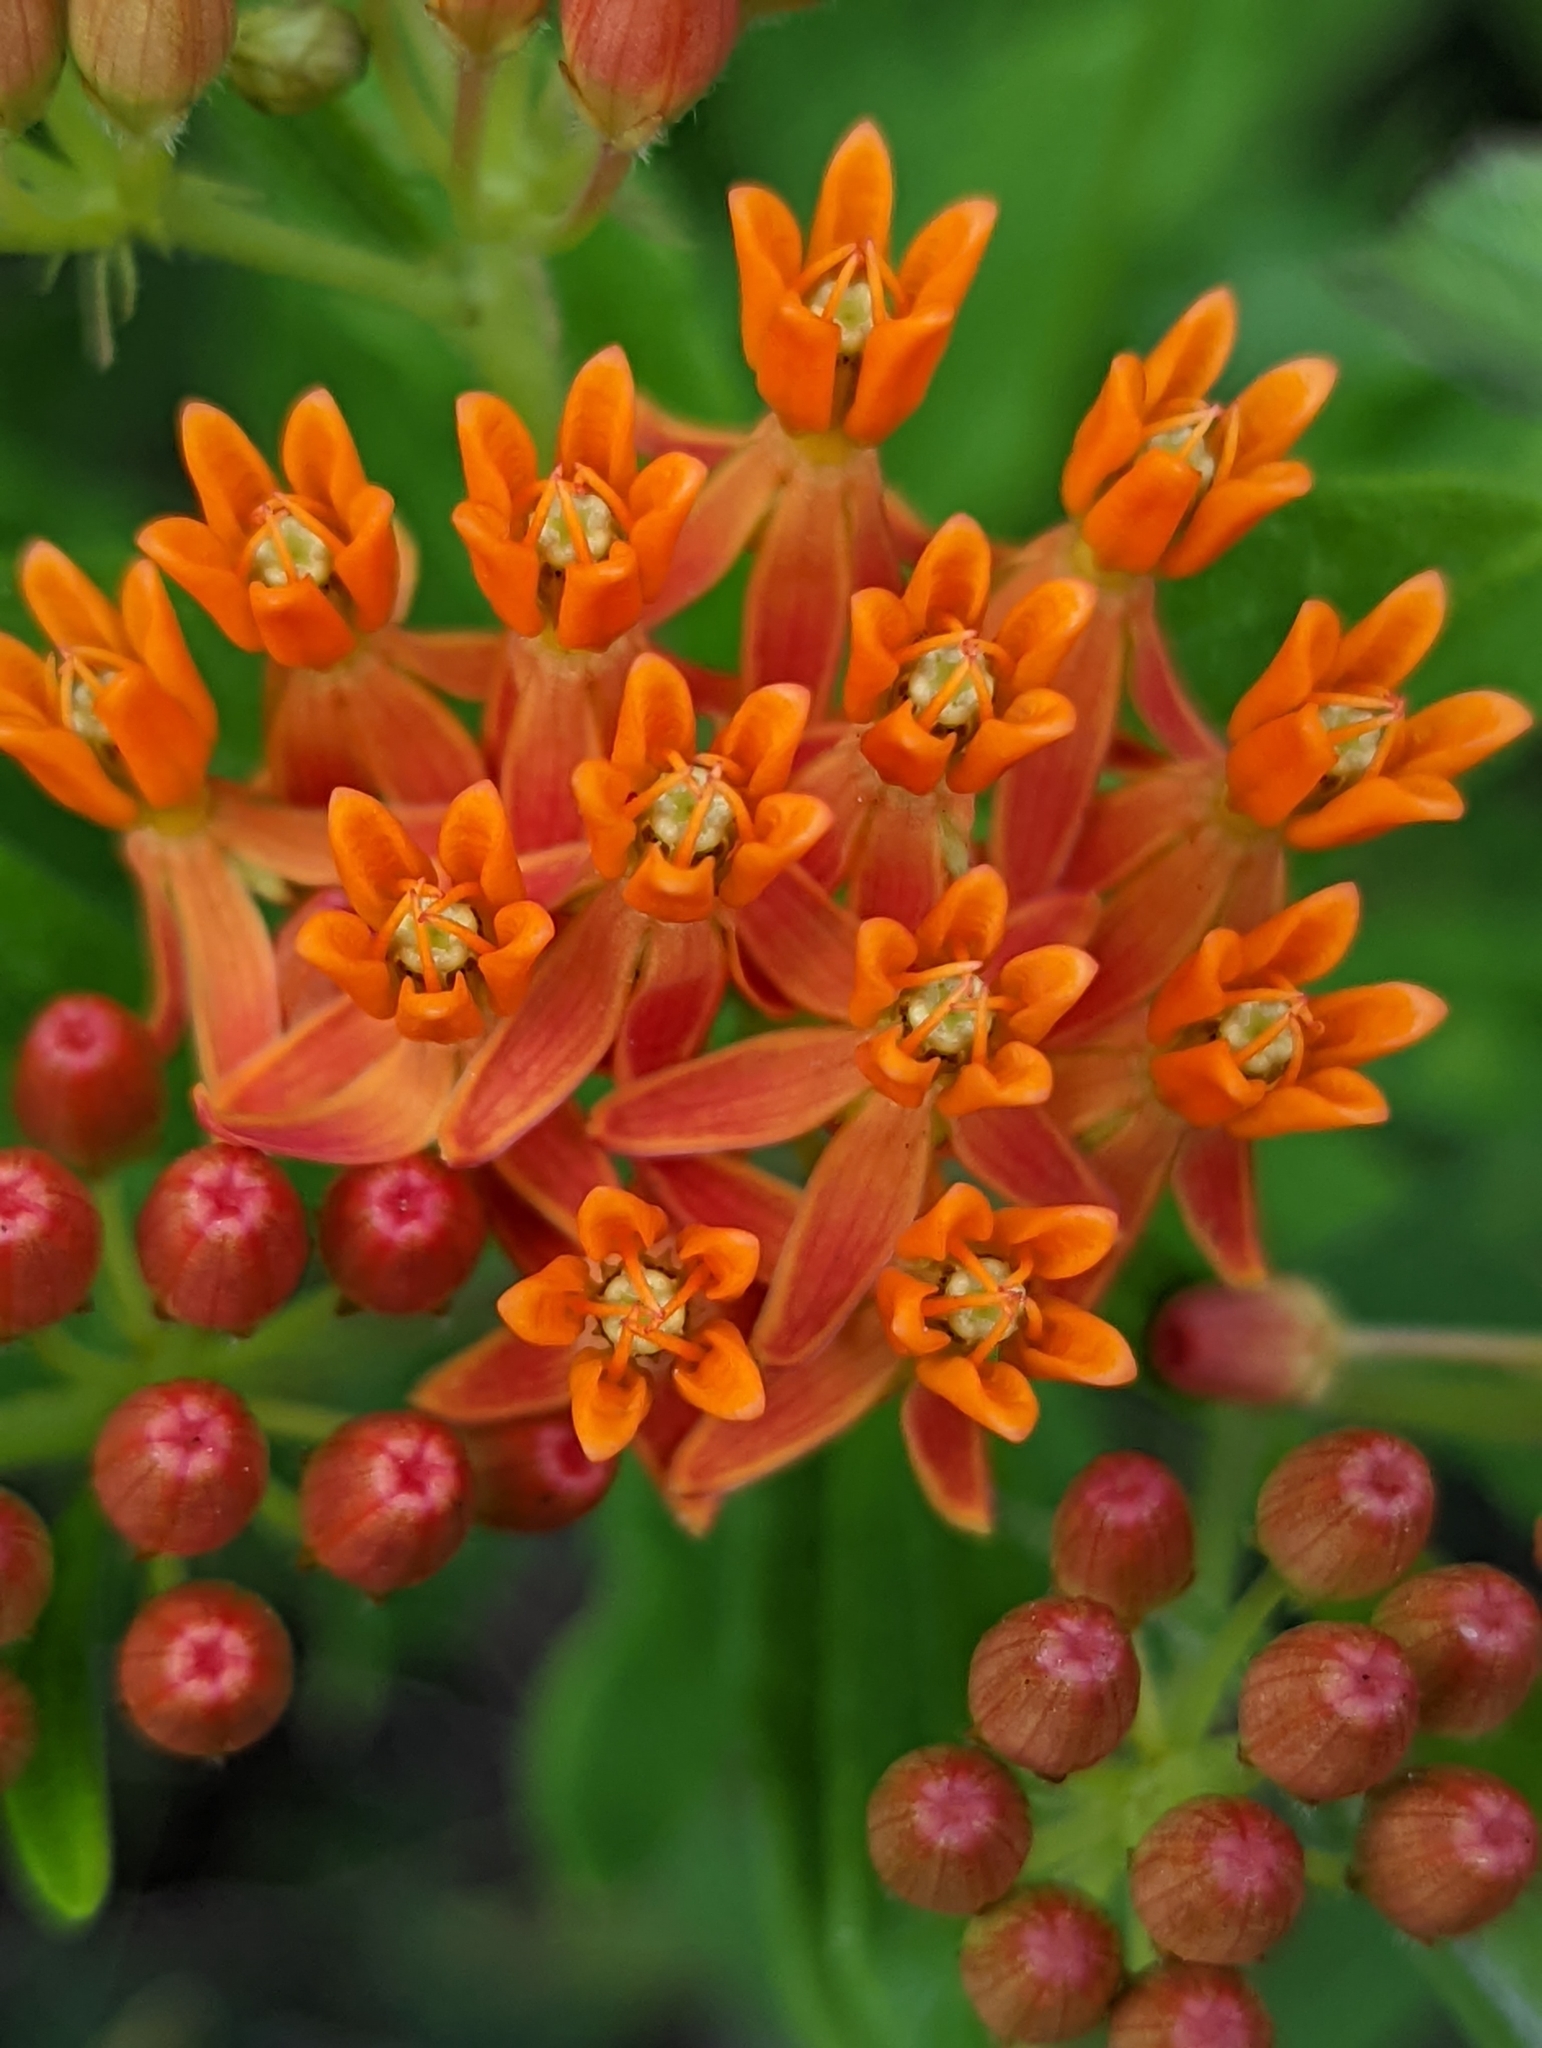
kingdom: Plantae
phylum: Tracheophyta
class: Magnoliopsida
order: Gentianales
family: Apocynaceae
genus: Asclepias
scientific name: Asclepias tuberosa
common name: Butterfly milkweed
